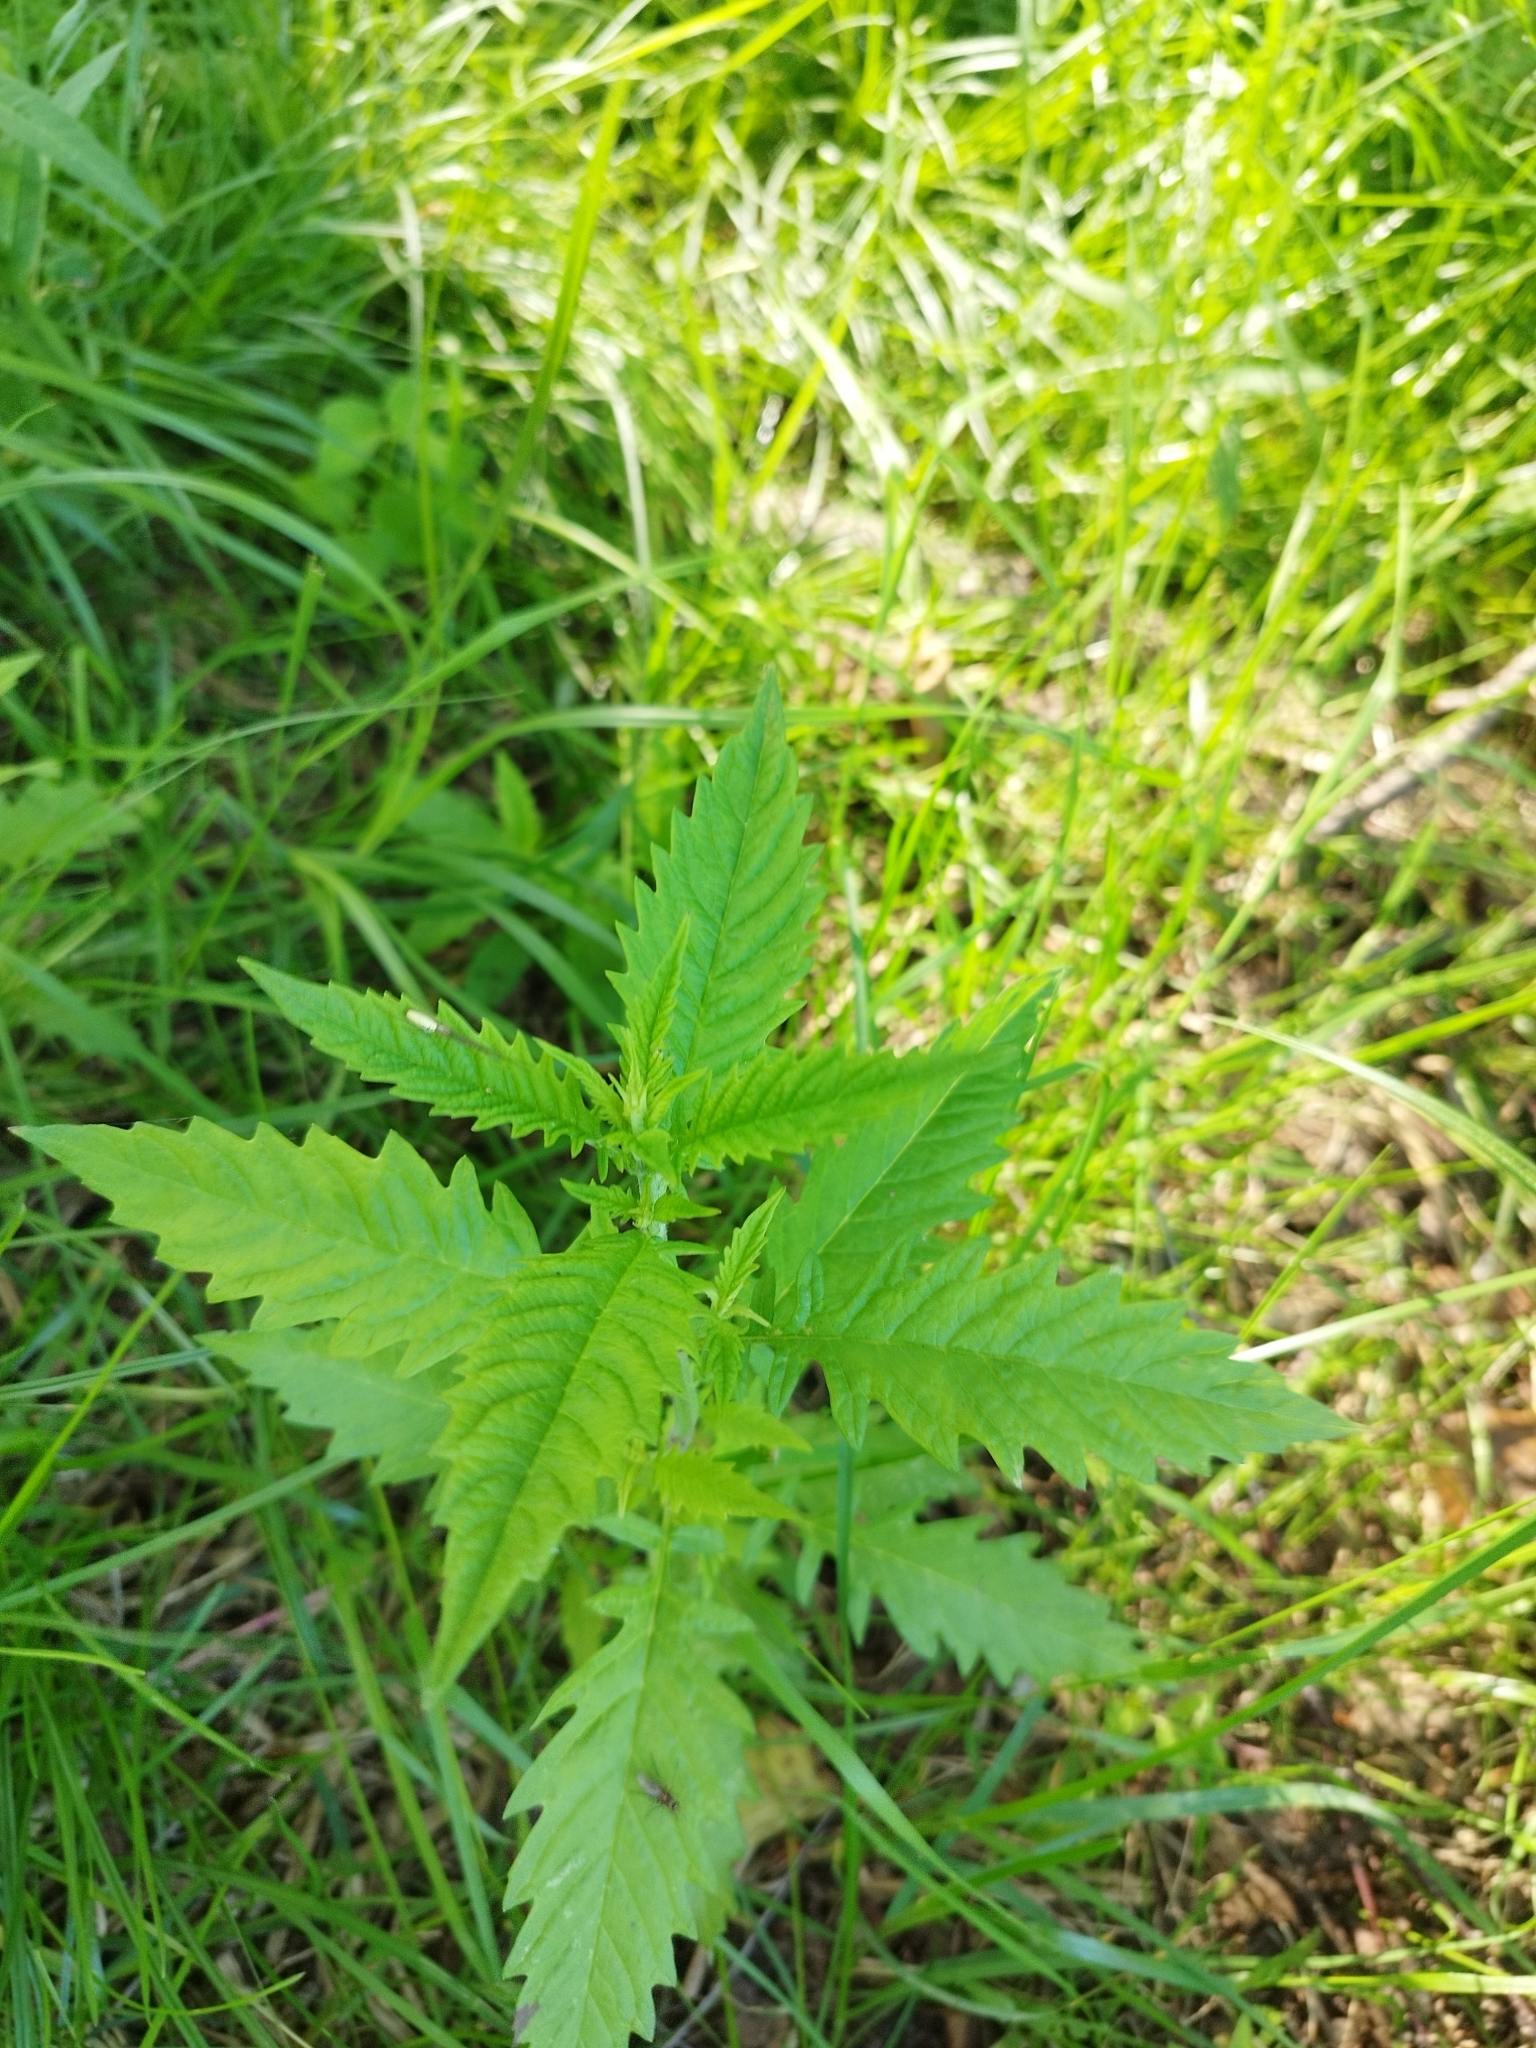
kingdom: Plantae
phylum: Tracheophyta
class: Magnoliopsida
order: Lamiales
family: Lamiaceae
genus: Lycopus
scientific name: Lycopus europaeus
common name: European bugleweed
